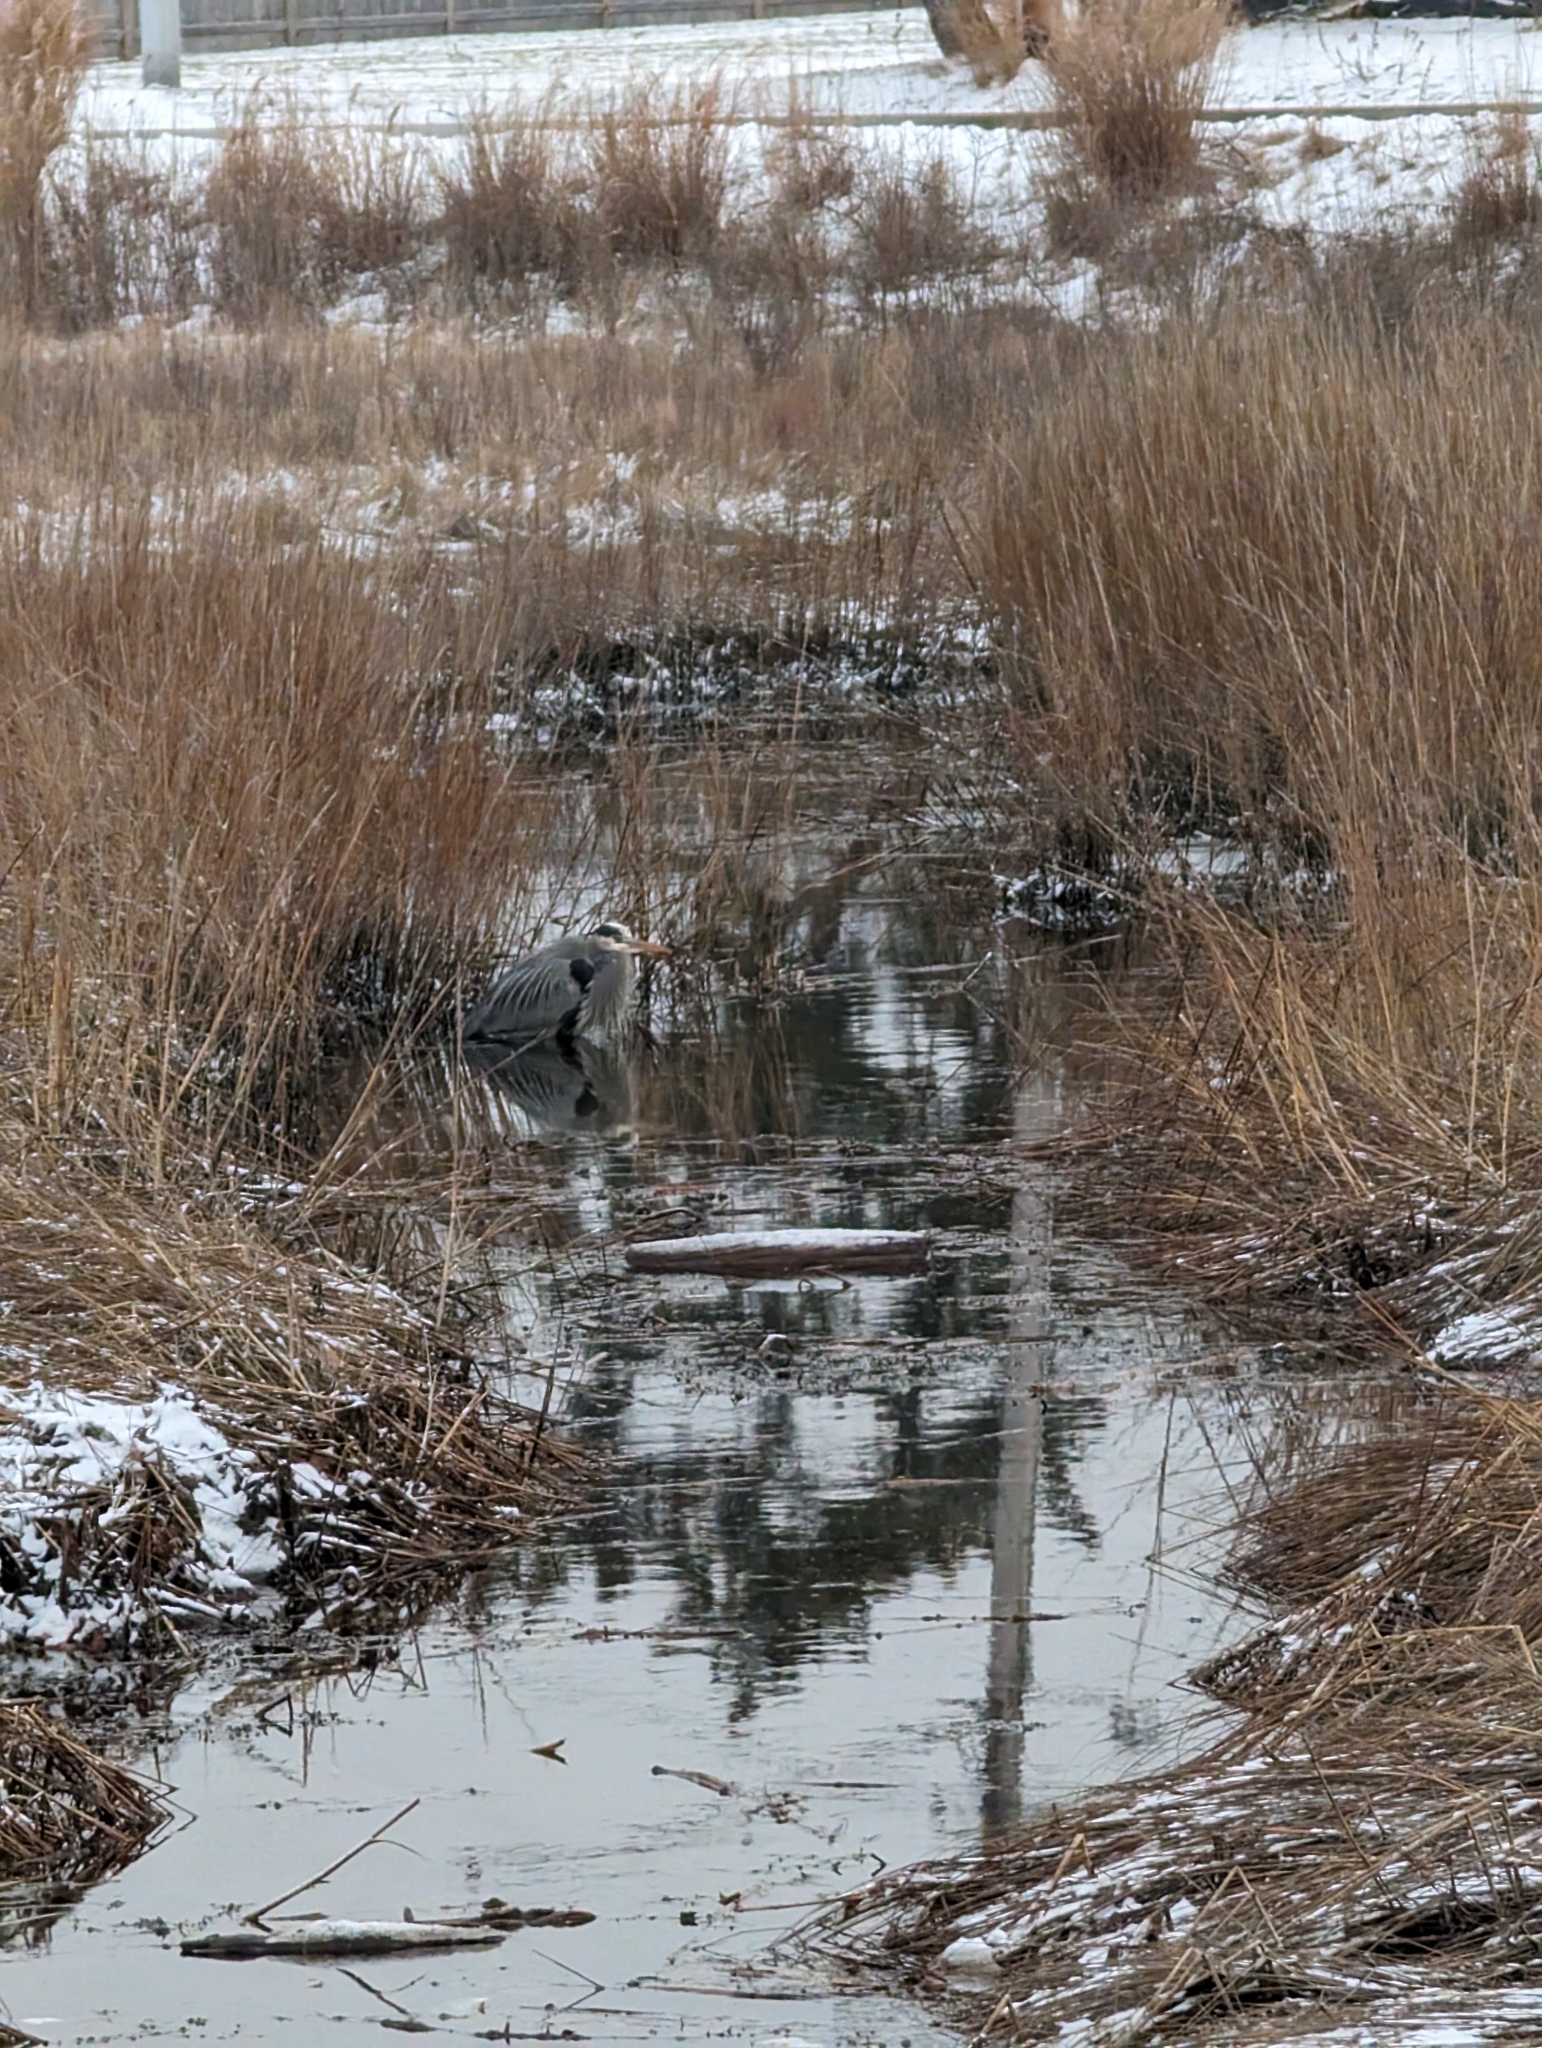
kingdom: Animalia
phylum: Chordata
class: Aves
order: Pelecaniformes
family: Ardeidae
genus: Ardea
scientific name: Ardea herodias
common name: Great blue heron
